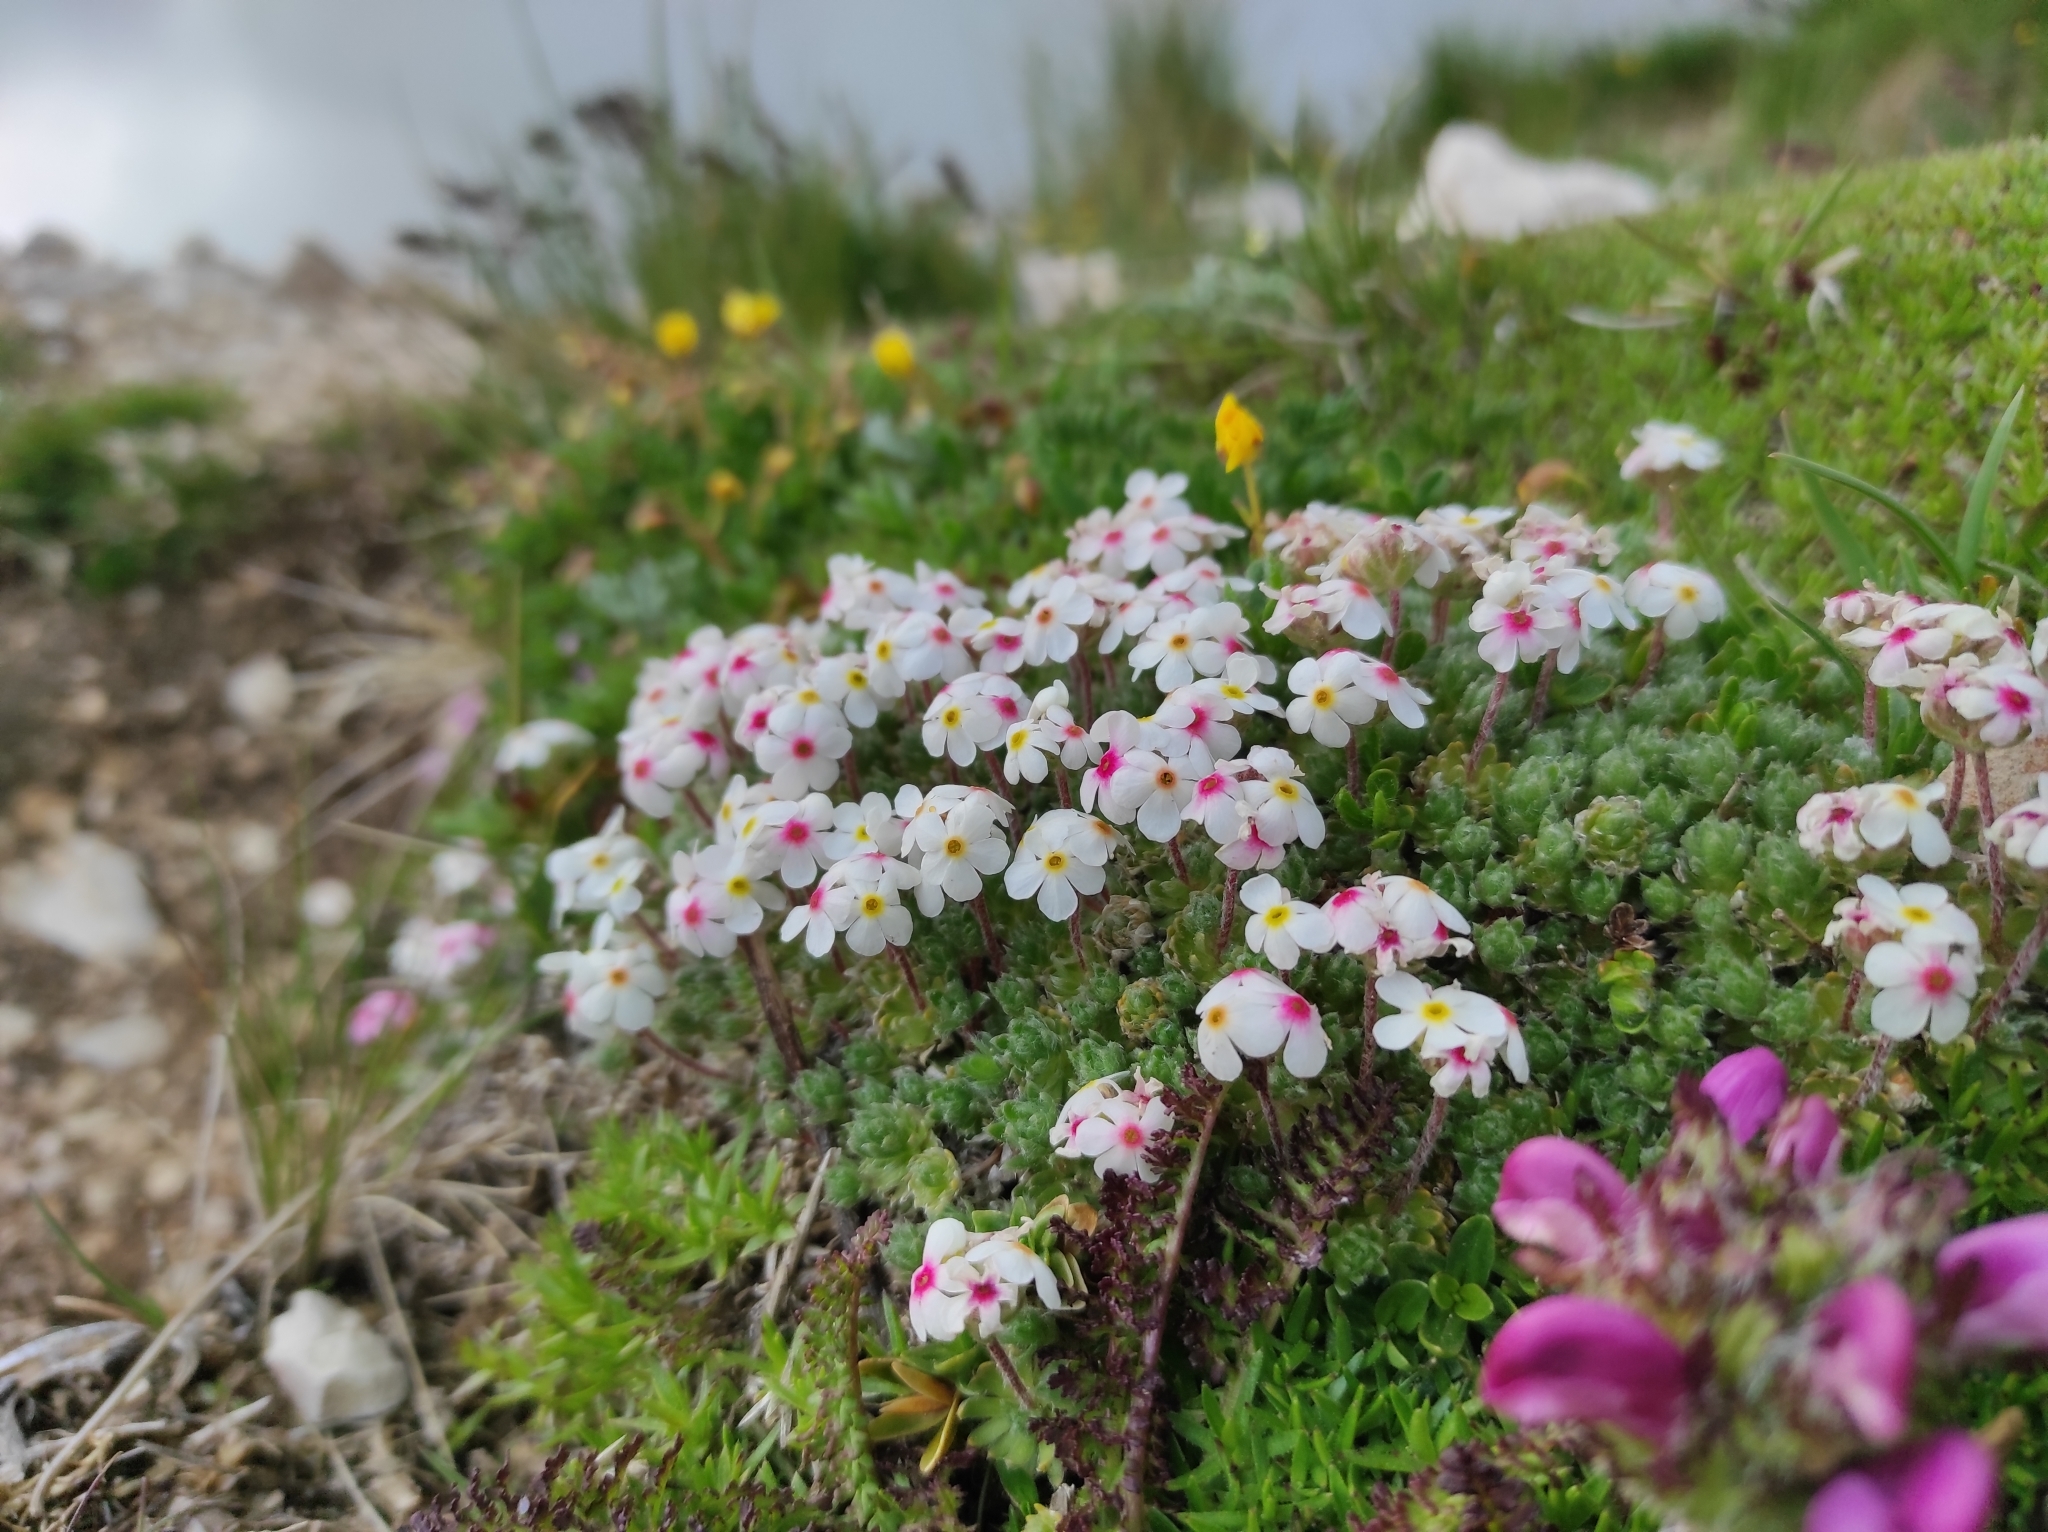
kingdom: Plantae
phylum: Tracheophyta
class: Magnoliopsida
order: Ericales
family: Primulaceae
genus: Androsace
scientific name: Androsace villosa
